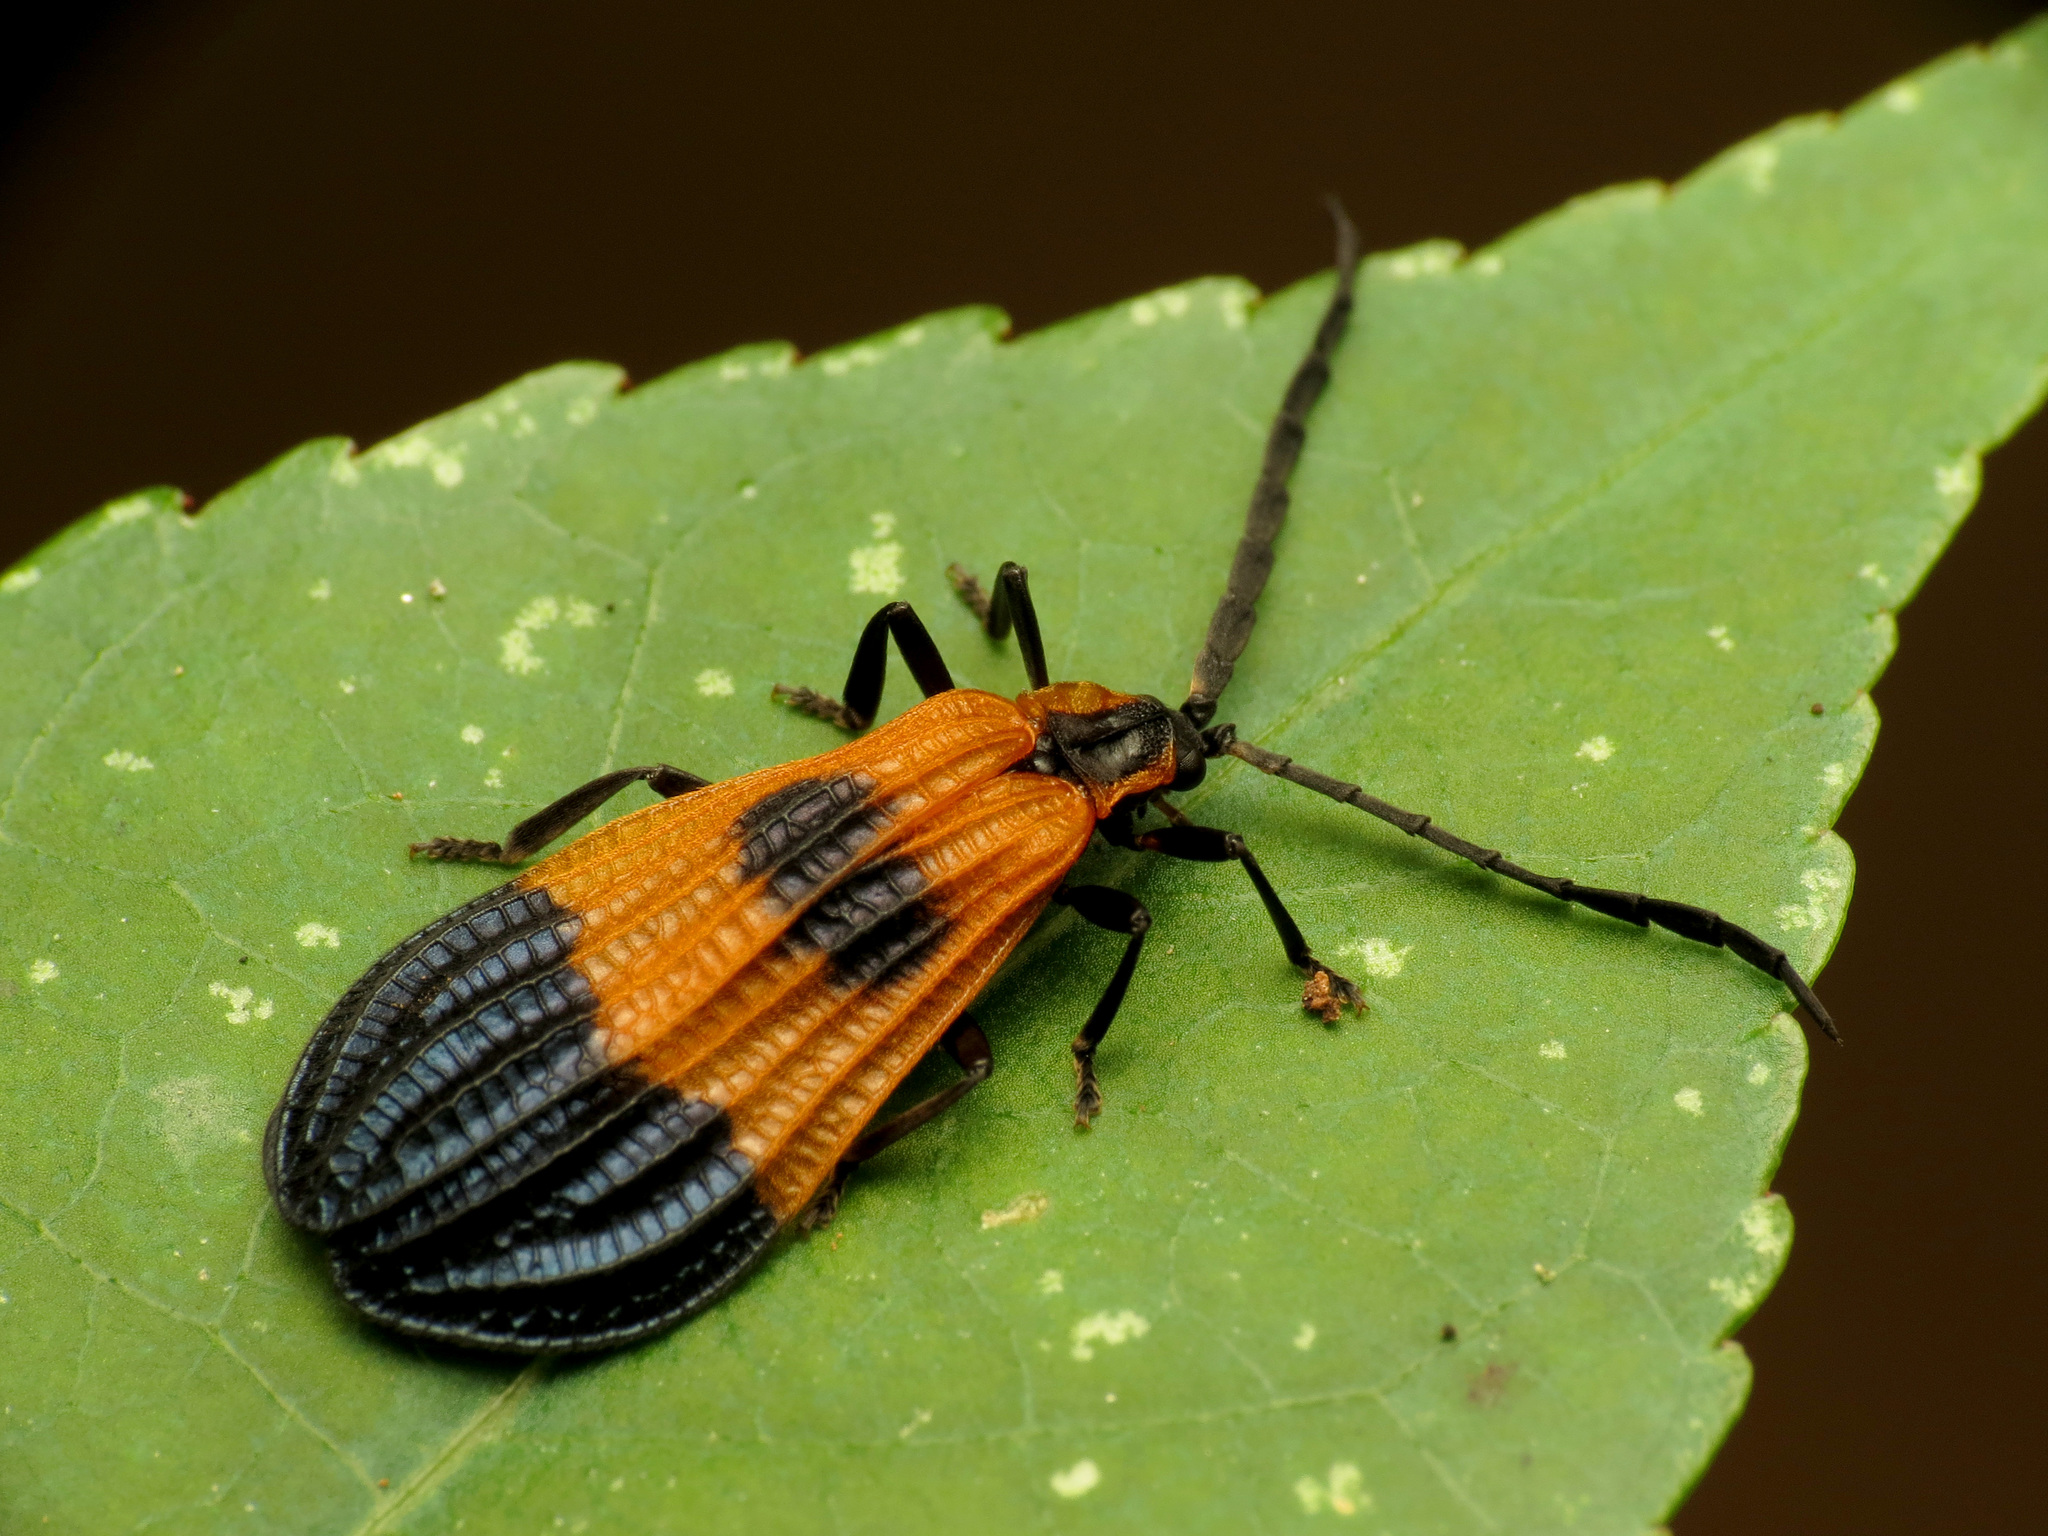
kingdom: Animalia
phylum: Arthropoda
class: Insecta
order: Coleoptera
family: Lycidae
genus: Calopteron
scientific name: Calopteron terminale
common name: End band net-winged beetle
